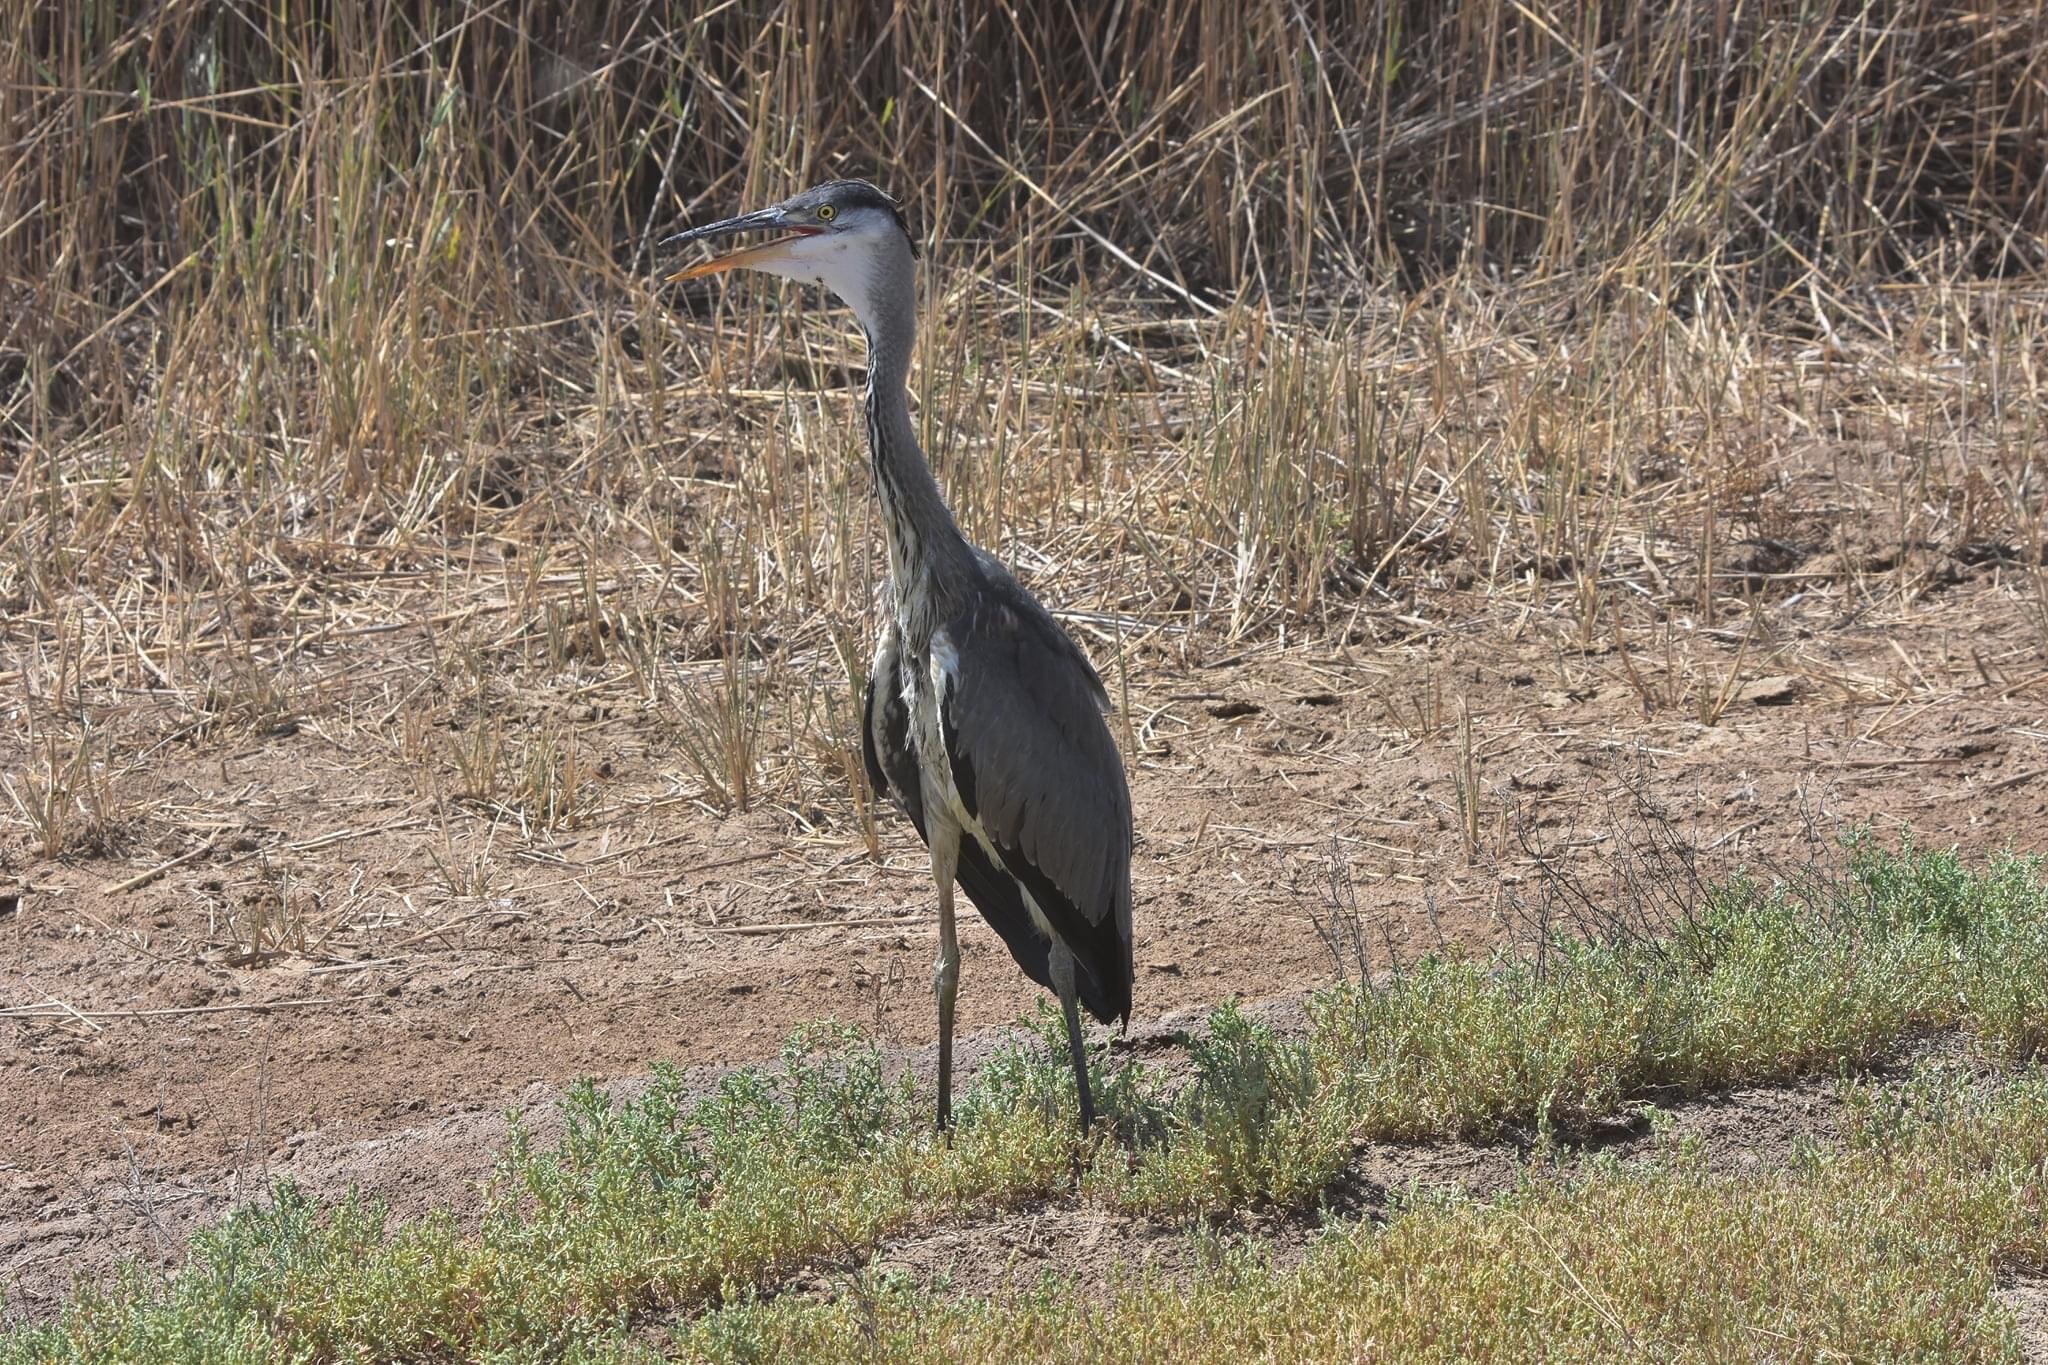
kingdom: Animalia
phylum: Chordata
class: Aves
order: Pelecaniformes
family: Ardeidae
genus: Ardea
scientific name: Ardea cinerea
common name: Grey heron
